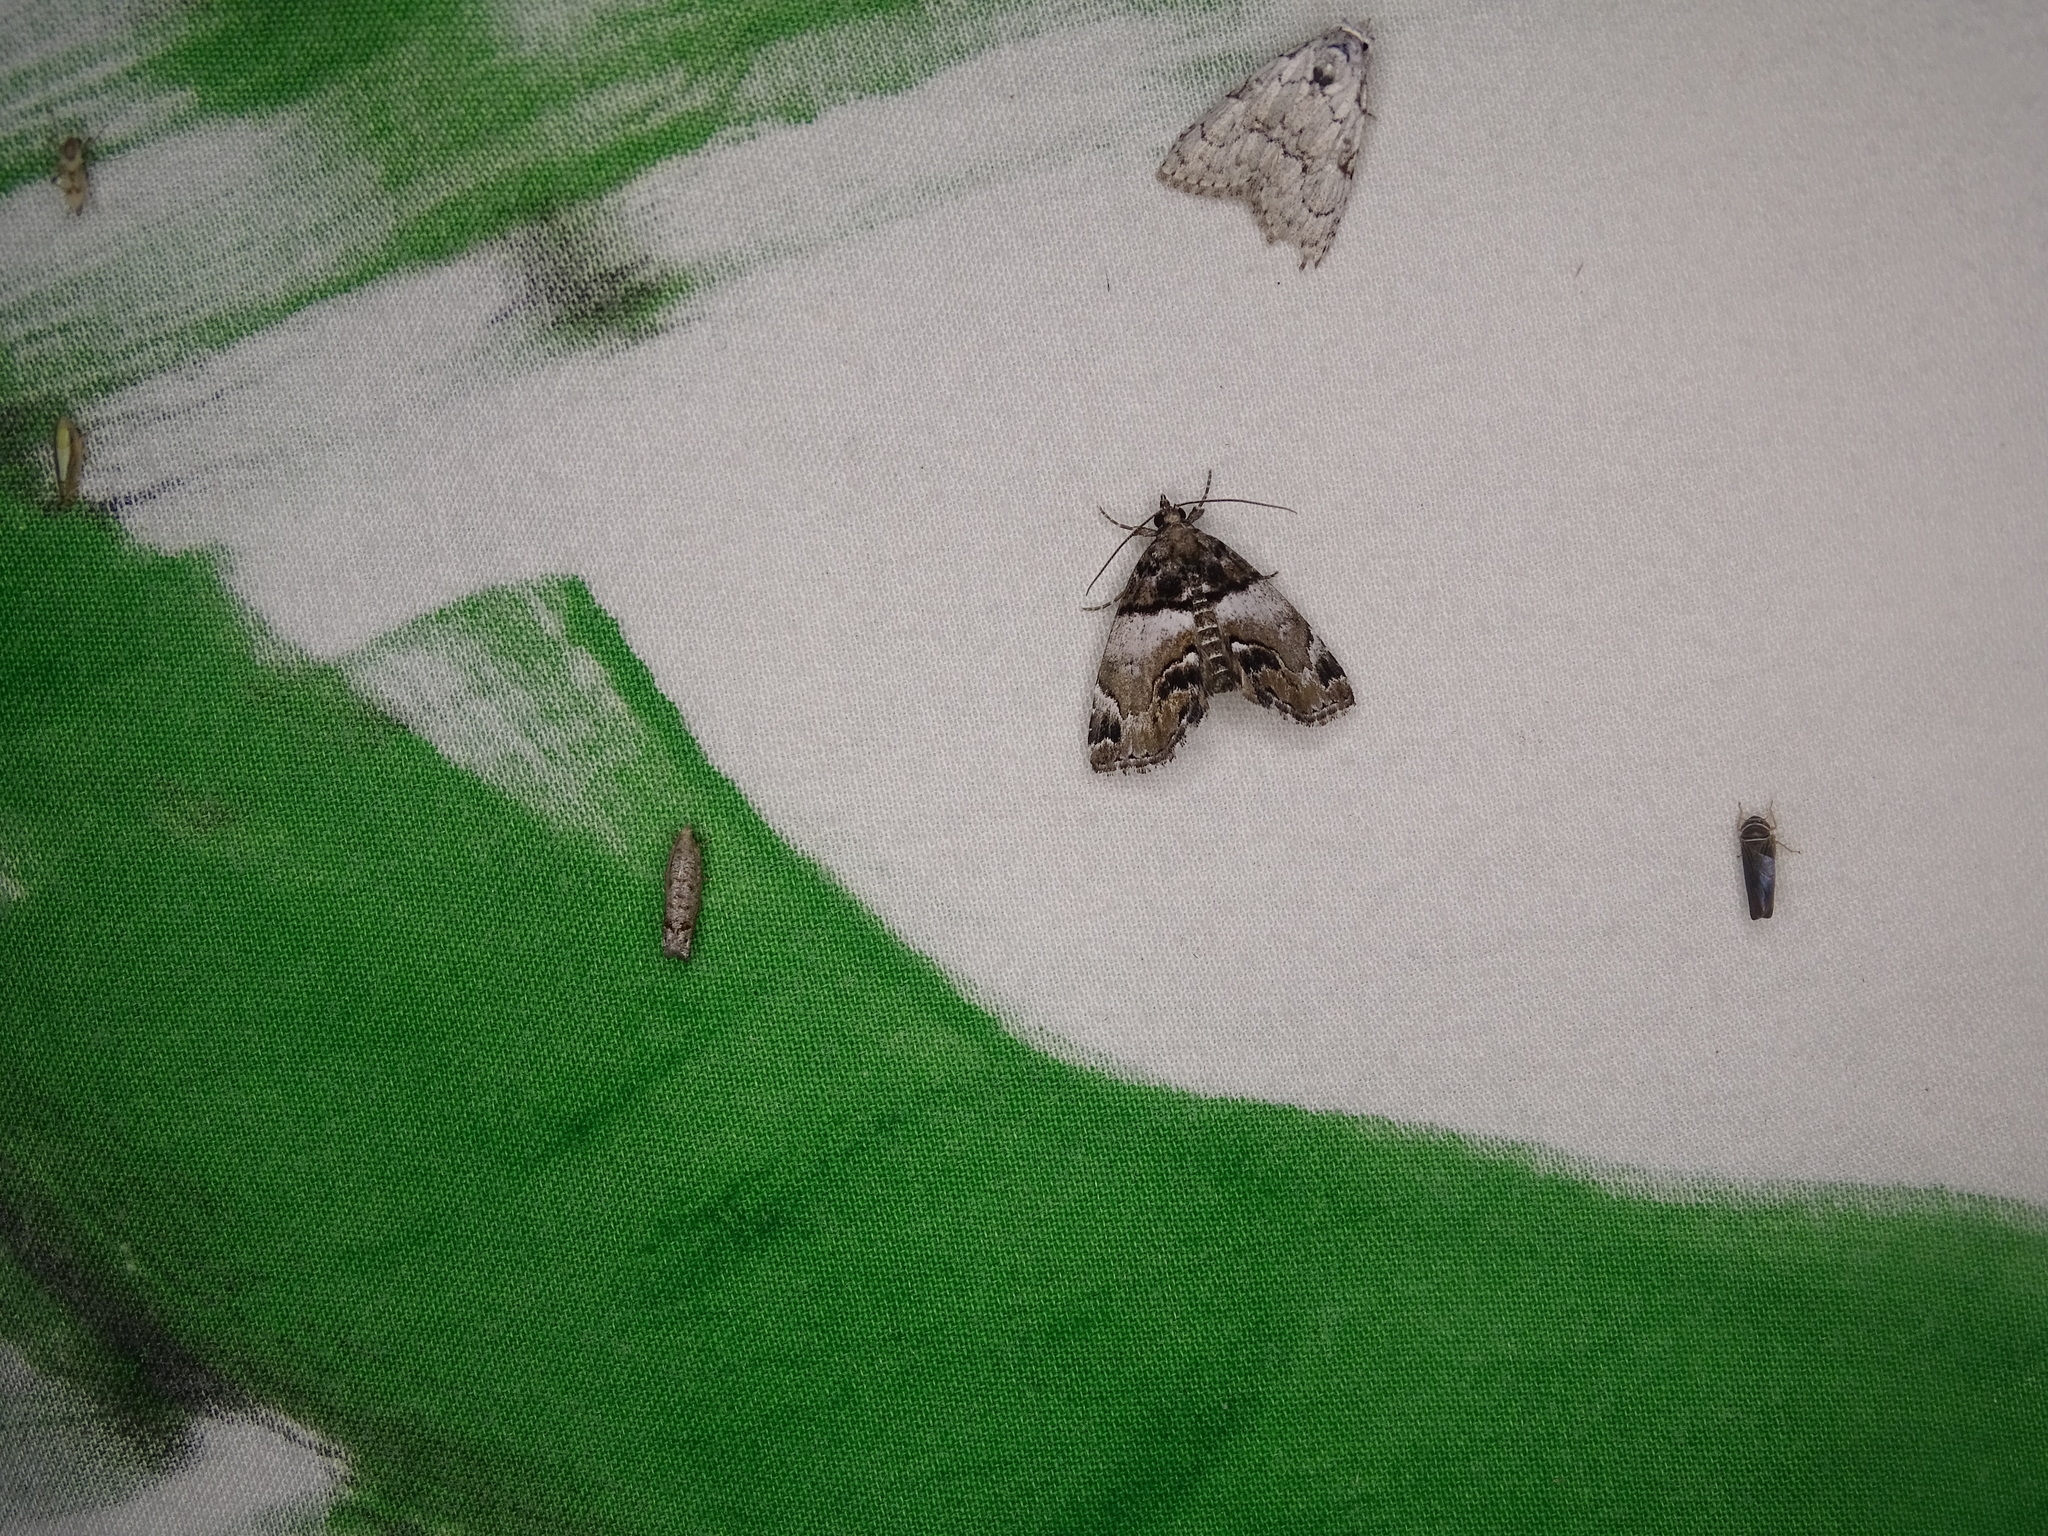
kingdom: Animalia
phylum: Arthropoda
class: Insecta
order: Lepidoptera
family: Erebidae
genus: Cutina
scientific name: Cutina distincta
